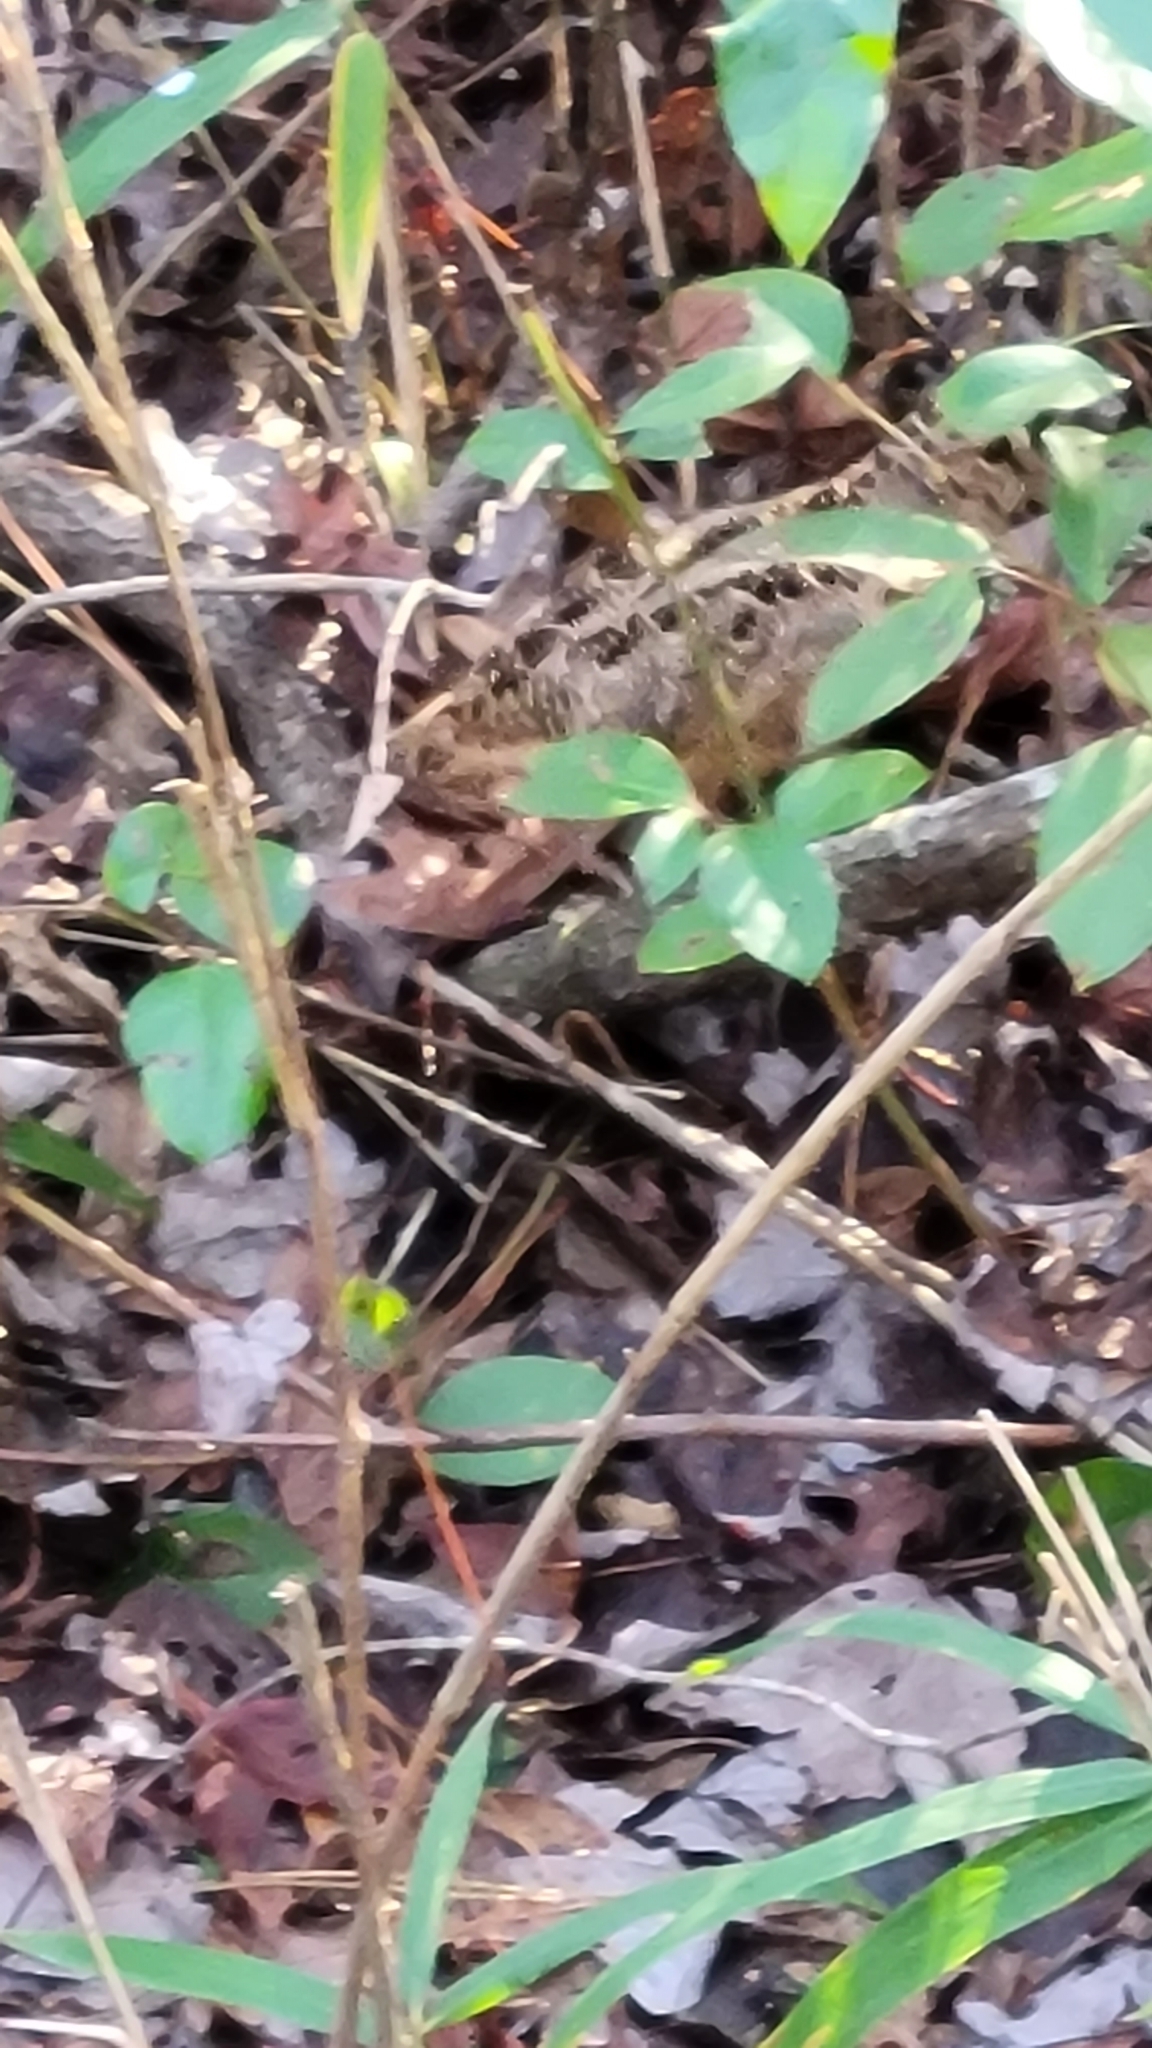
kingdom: Animalia
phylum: Chordata
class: Aves
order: Charadriiformes
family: Scolopacidae
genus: Scolopax
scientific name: Scolopax minor
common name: American woodcock
